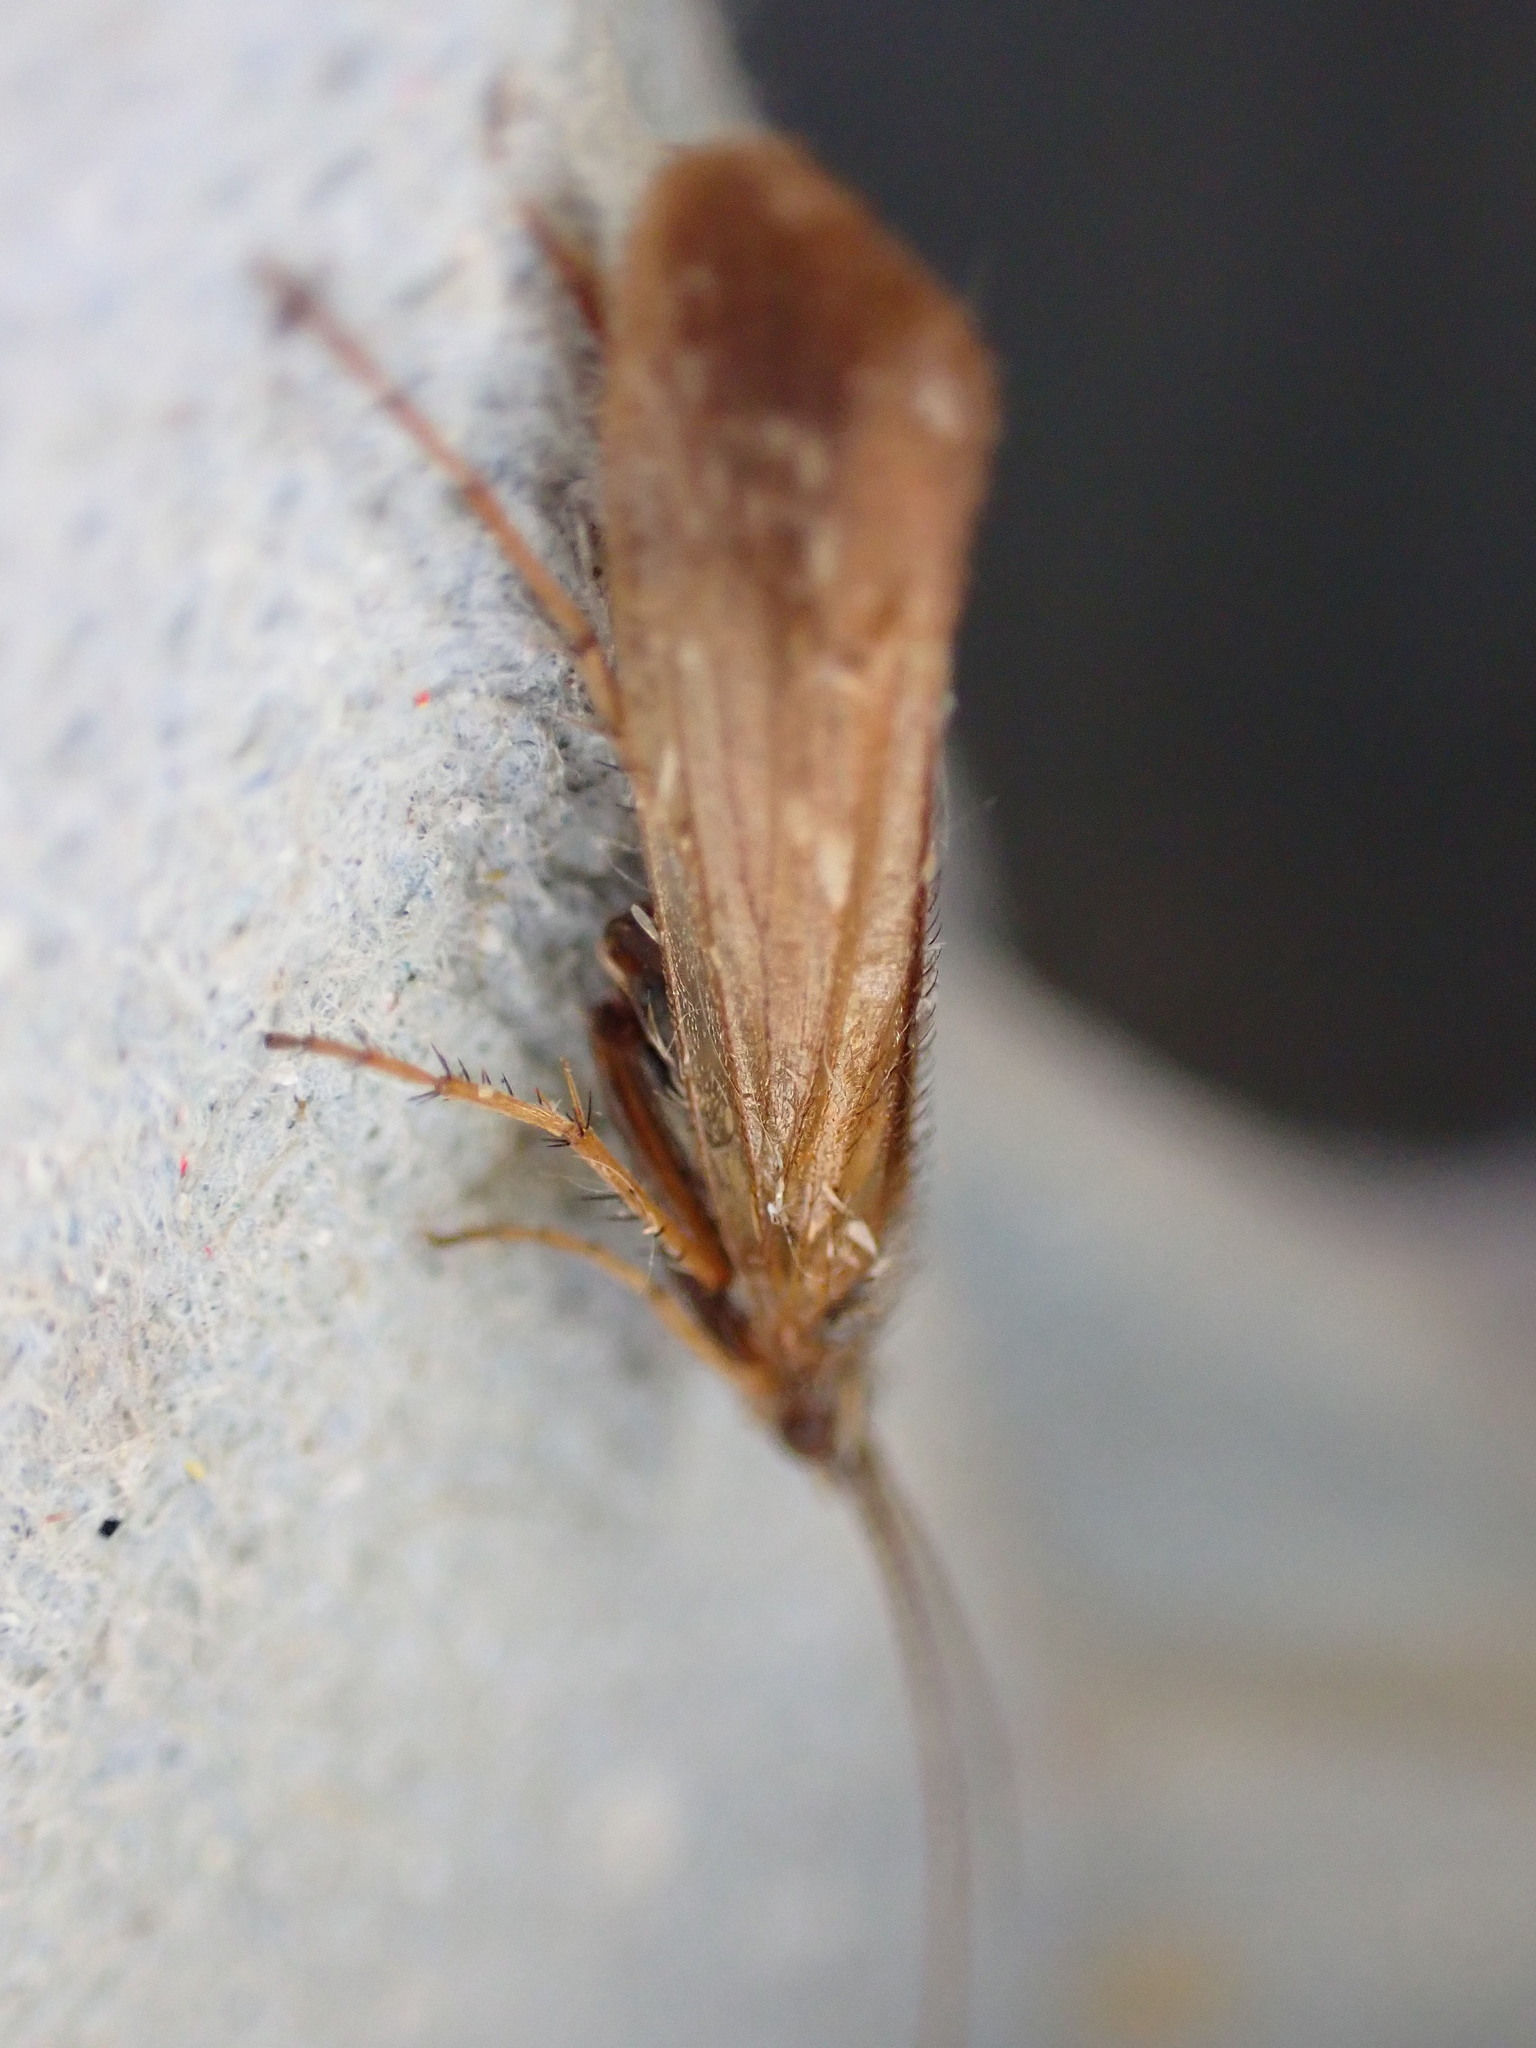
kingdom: Animalia
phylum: Arthropoda
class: Insecta
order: Trichoptera
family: Limnephilidae
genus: Limnephilus
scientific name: Limnephilus auricula
